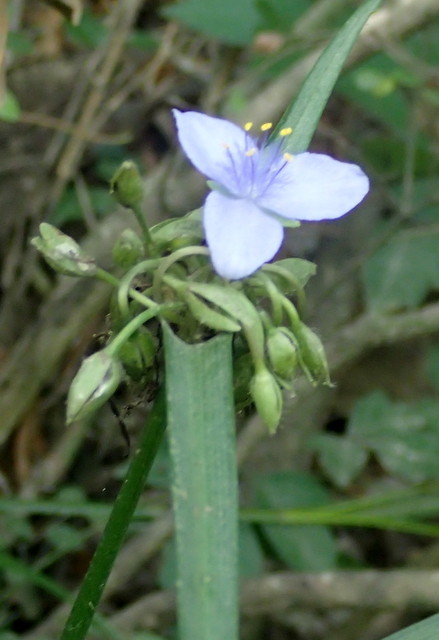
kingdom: Plantae
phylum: Tracheophyta
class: Liliopsida
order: Commelinales
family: Commelinaceae
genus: Tradescantia
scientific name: Tradescantia ohiensis
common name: Ohio spiderwort
